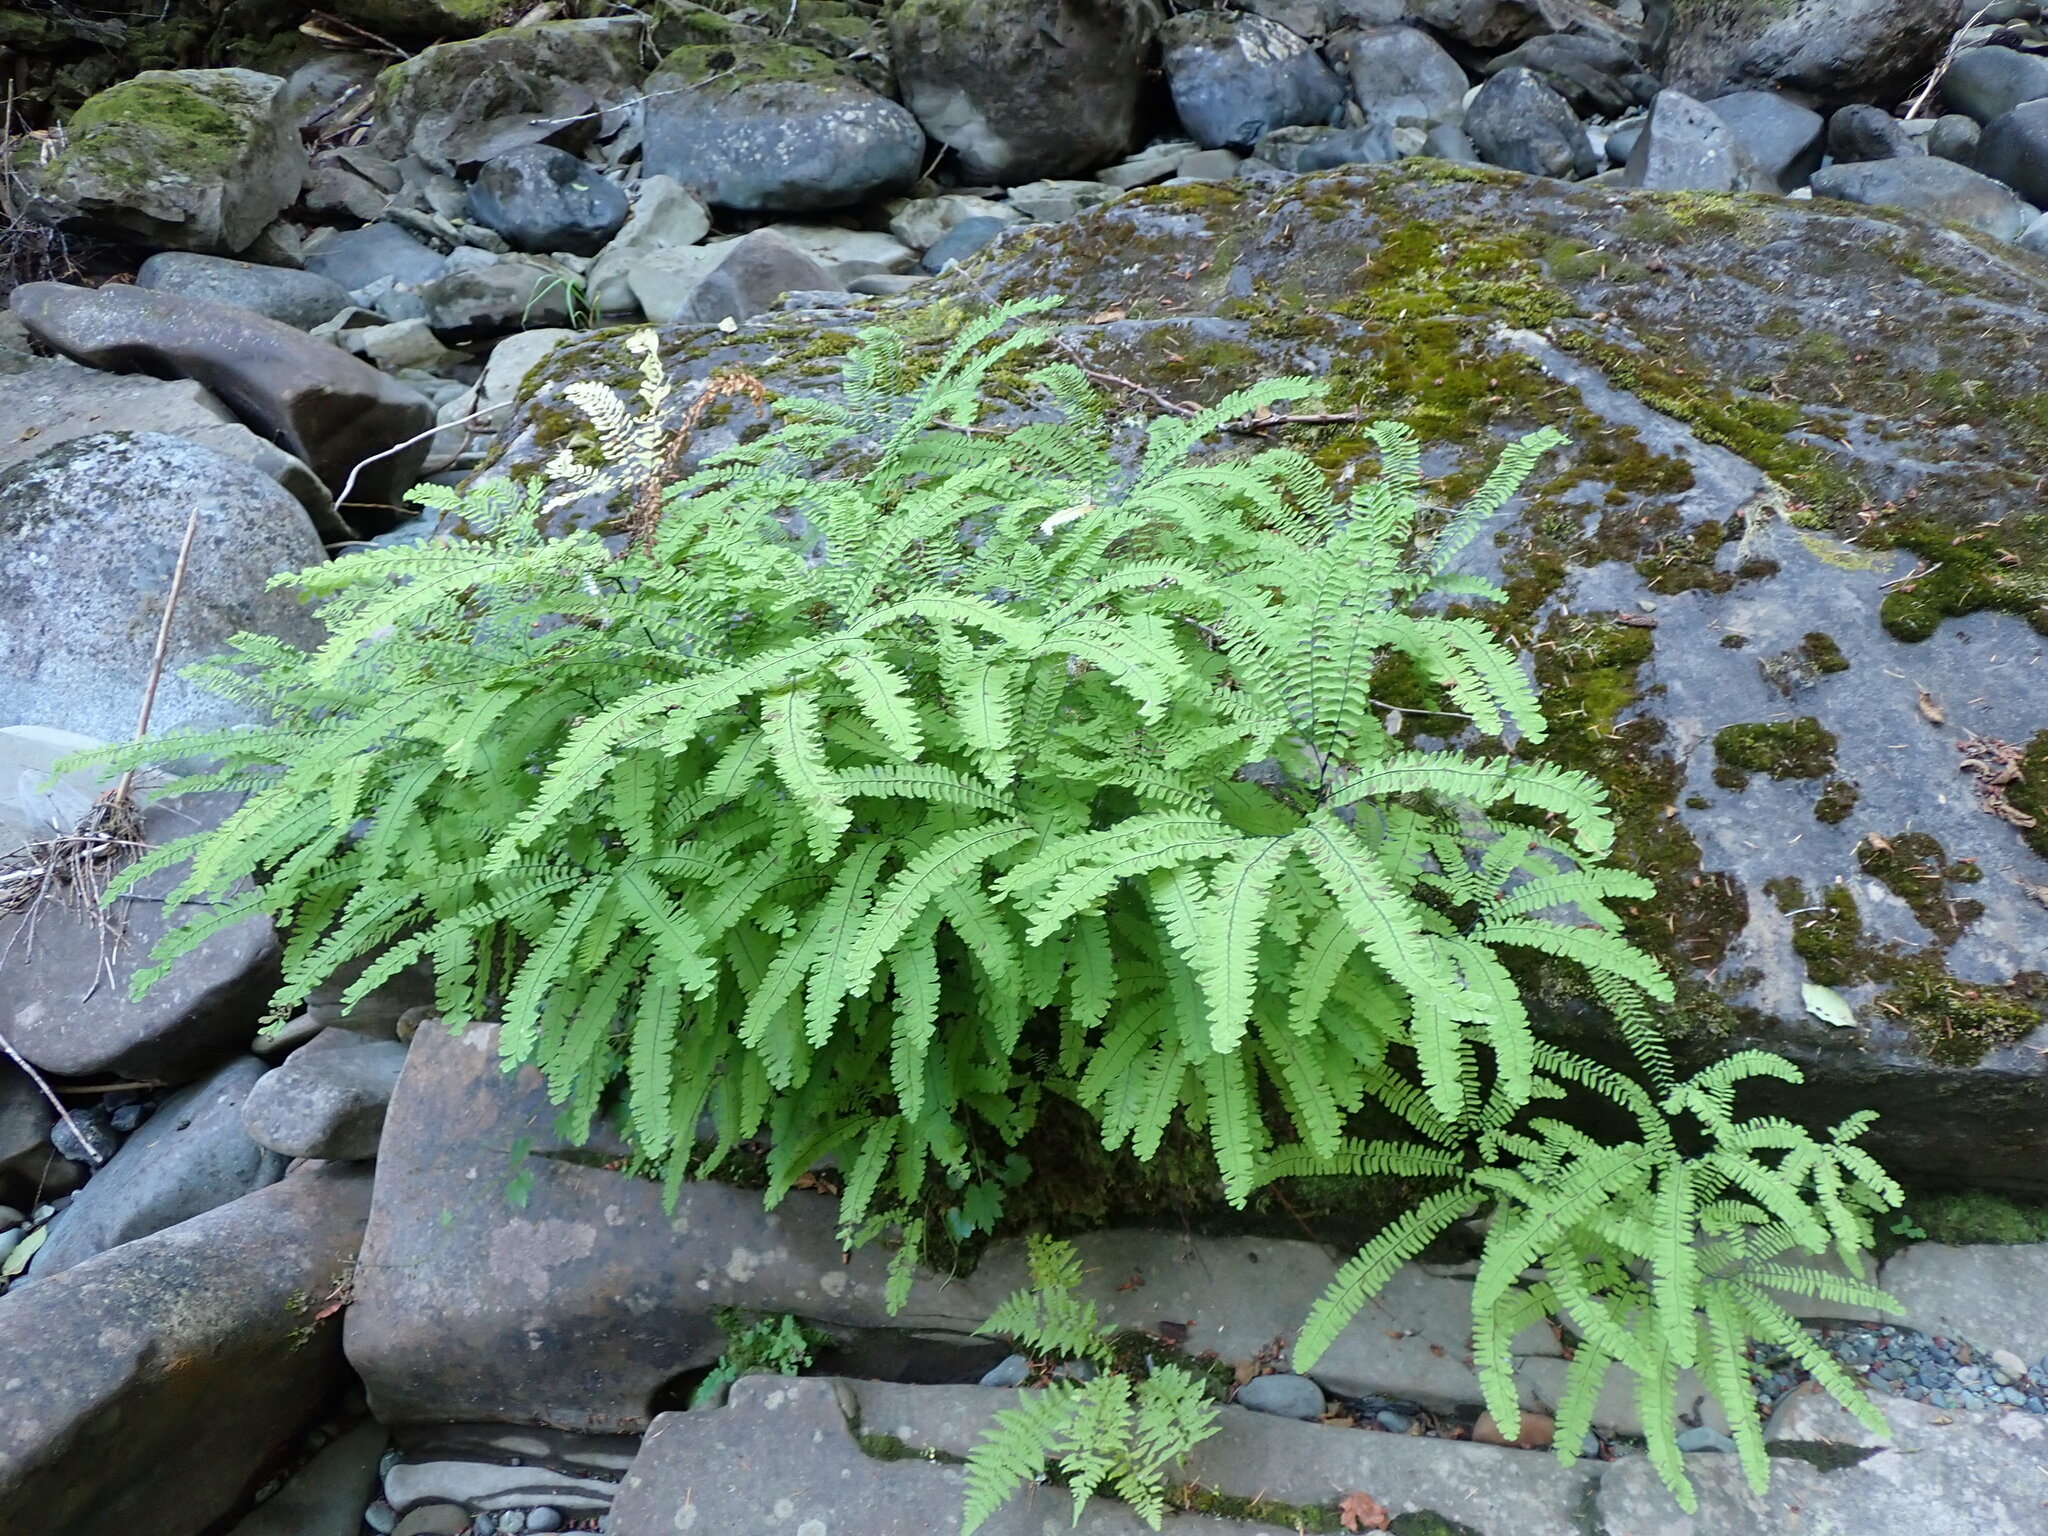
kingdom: Plantae
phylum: Tracheophyta
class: Polypodiopsida
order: Polypodiales
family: Pteridaceae
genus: Adiantum
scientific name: Adiantum aleuticum
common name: Aleutian maidenhair fern
